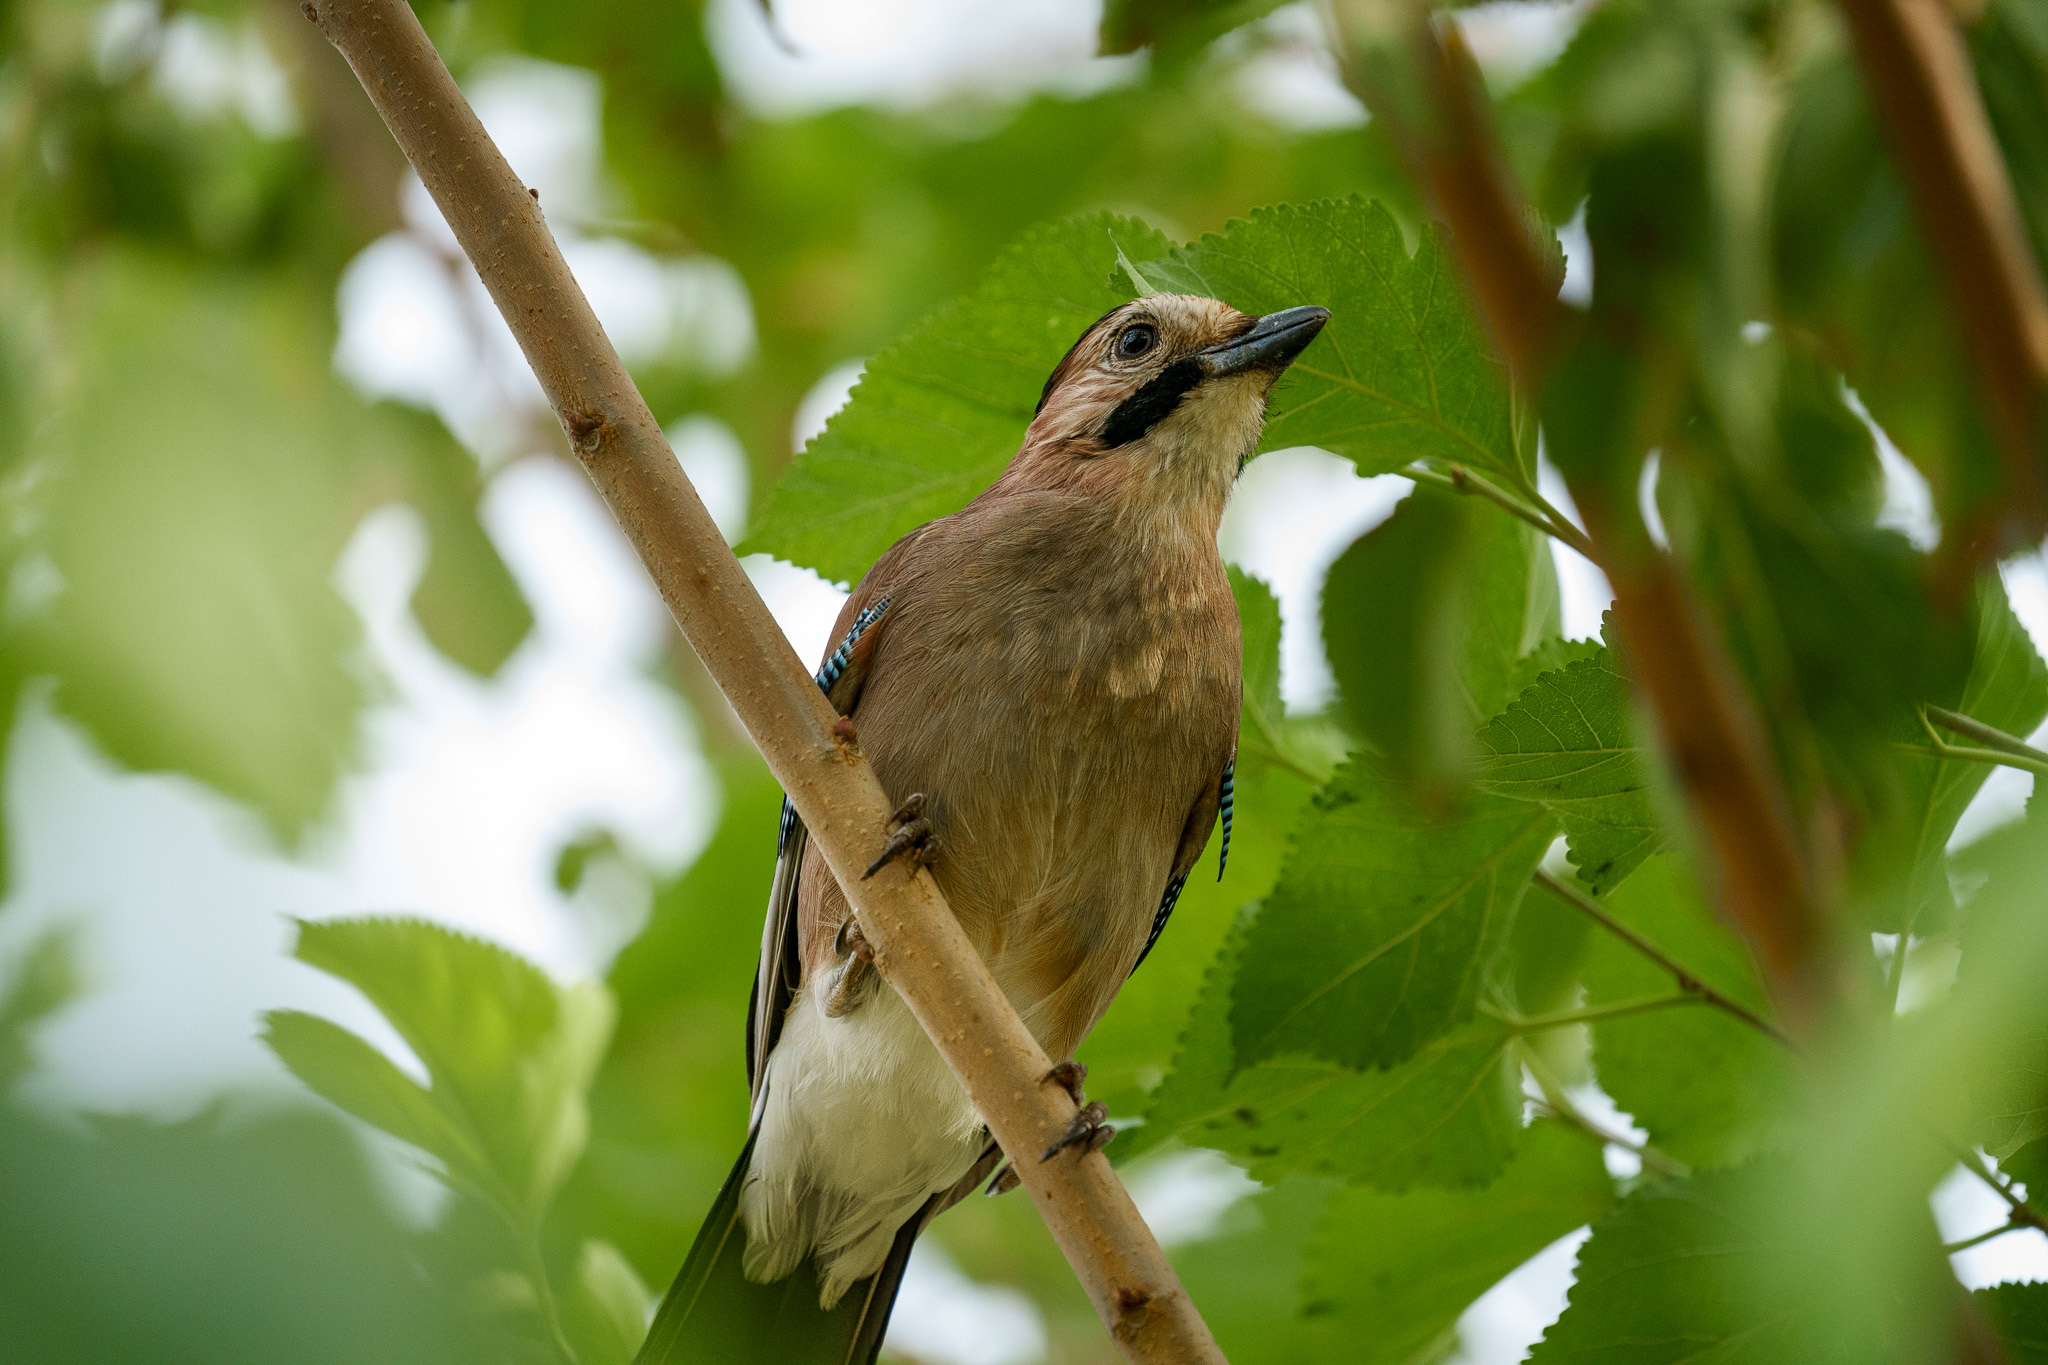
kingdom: Animalia
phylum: Chordata
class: Aves
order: Passeriformes
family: Corvidae
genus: Garrulus
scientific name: Garrulus glandarius
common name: Eurasian jay
